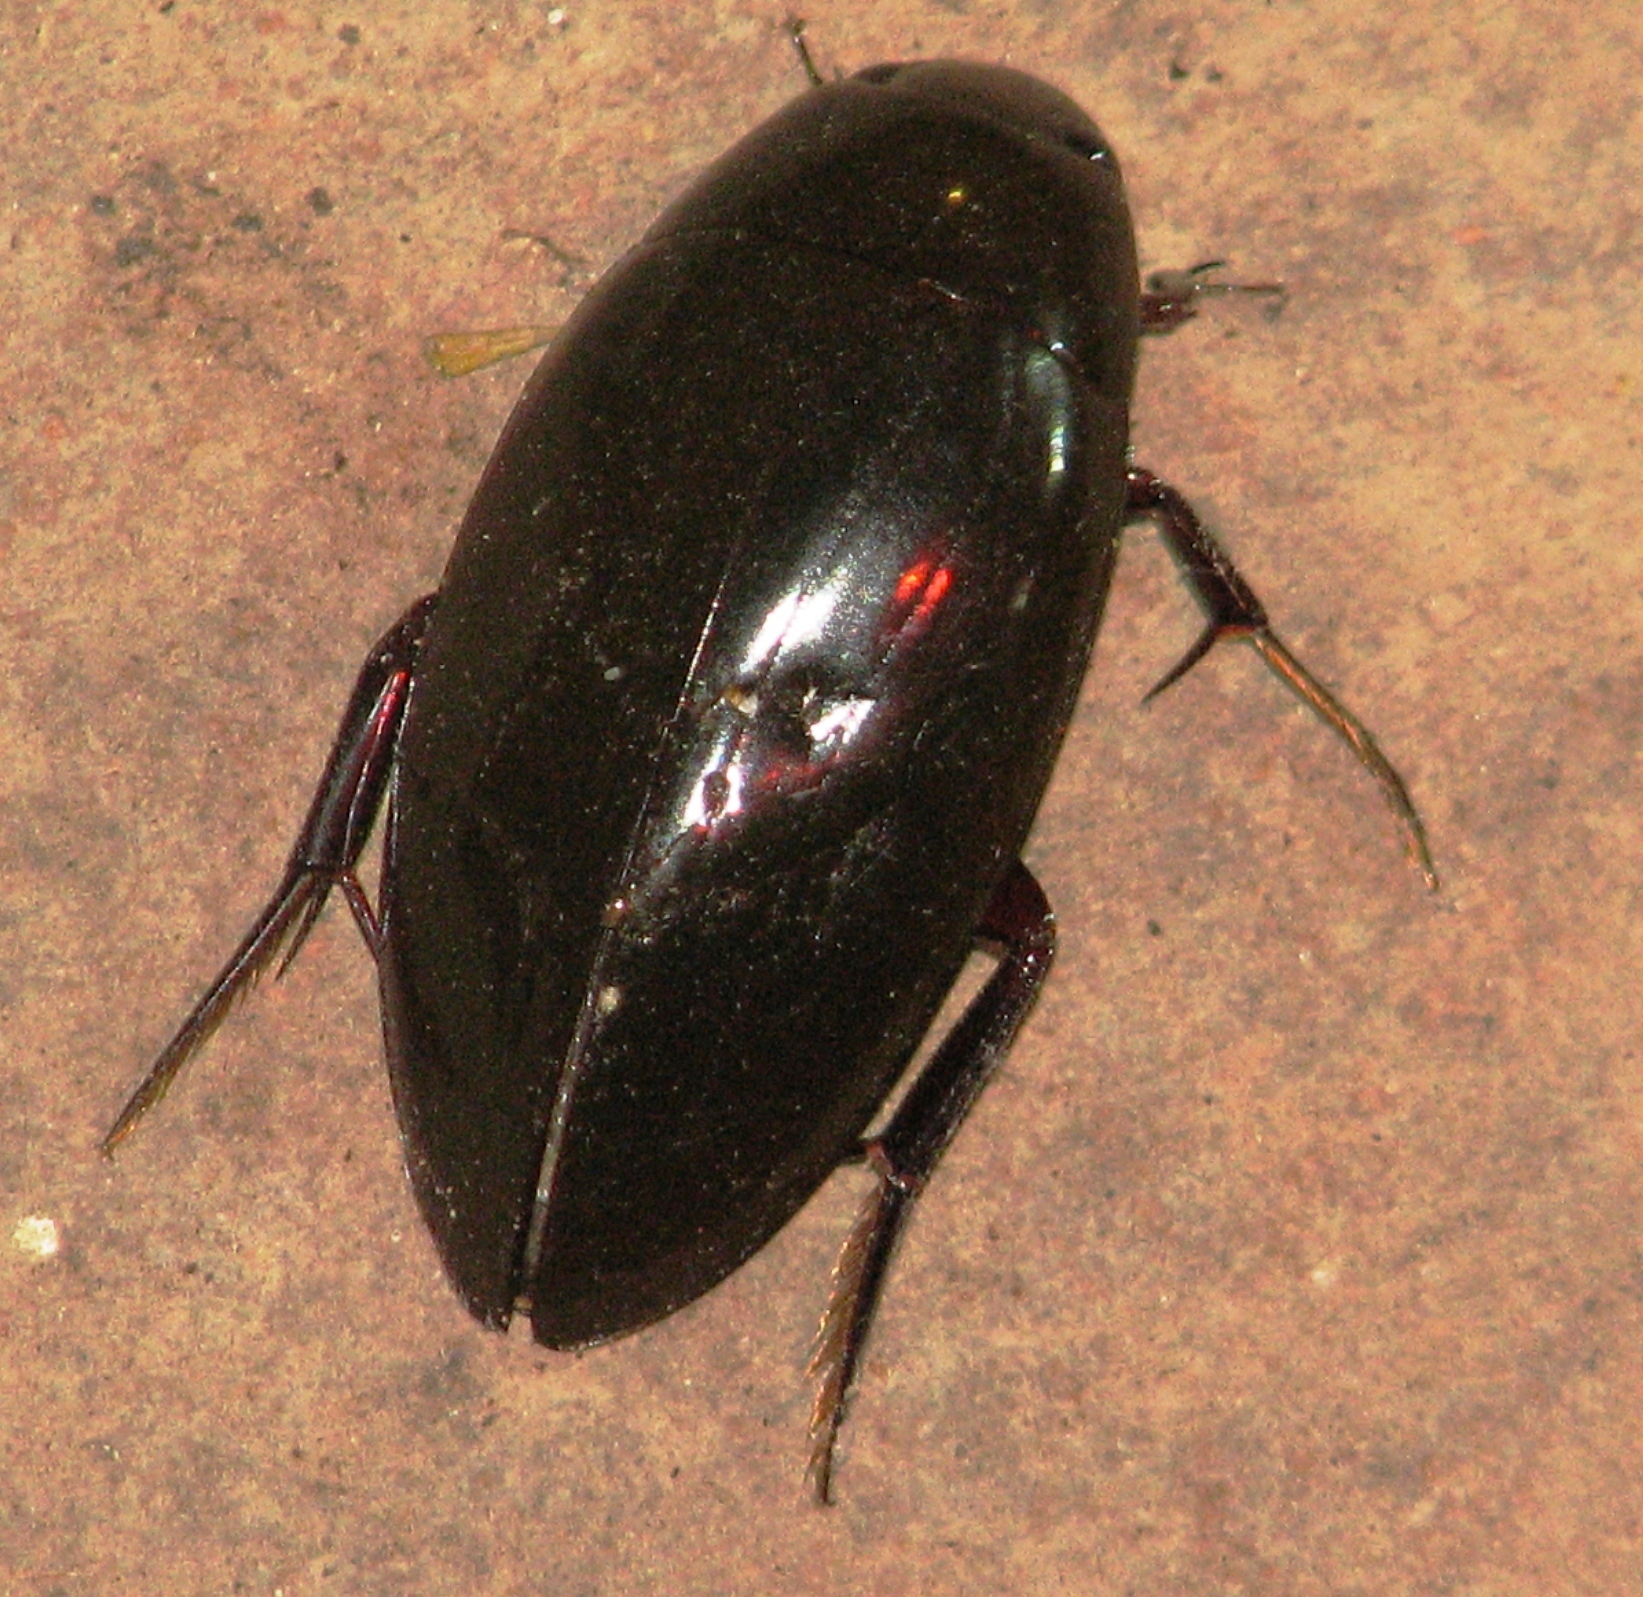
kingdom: Animalia
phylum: Arthropoda
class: Insecta
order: Coleoptera
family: Hydrophilidae
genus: Hydrophilus
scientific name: Hydrophilus
